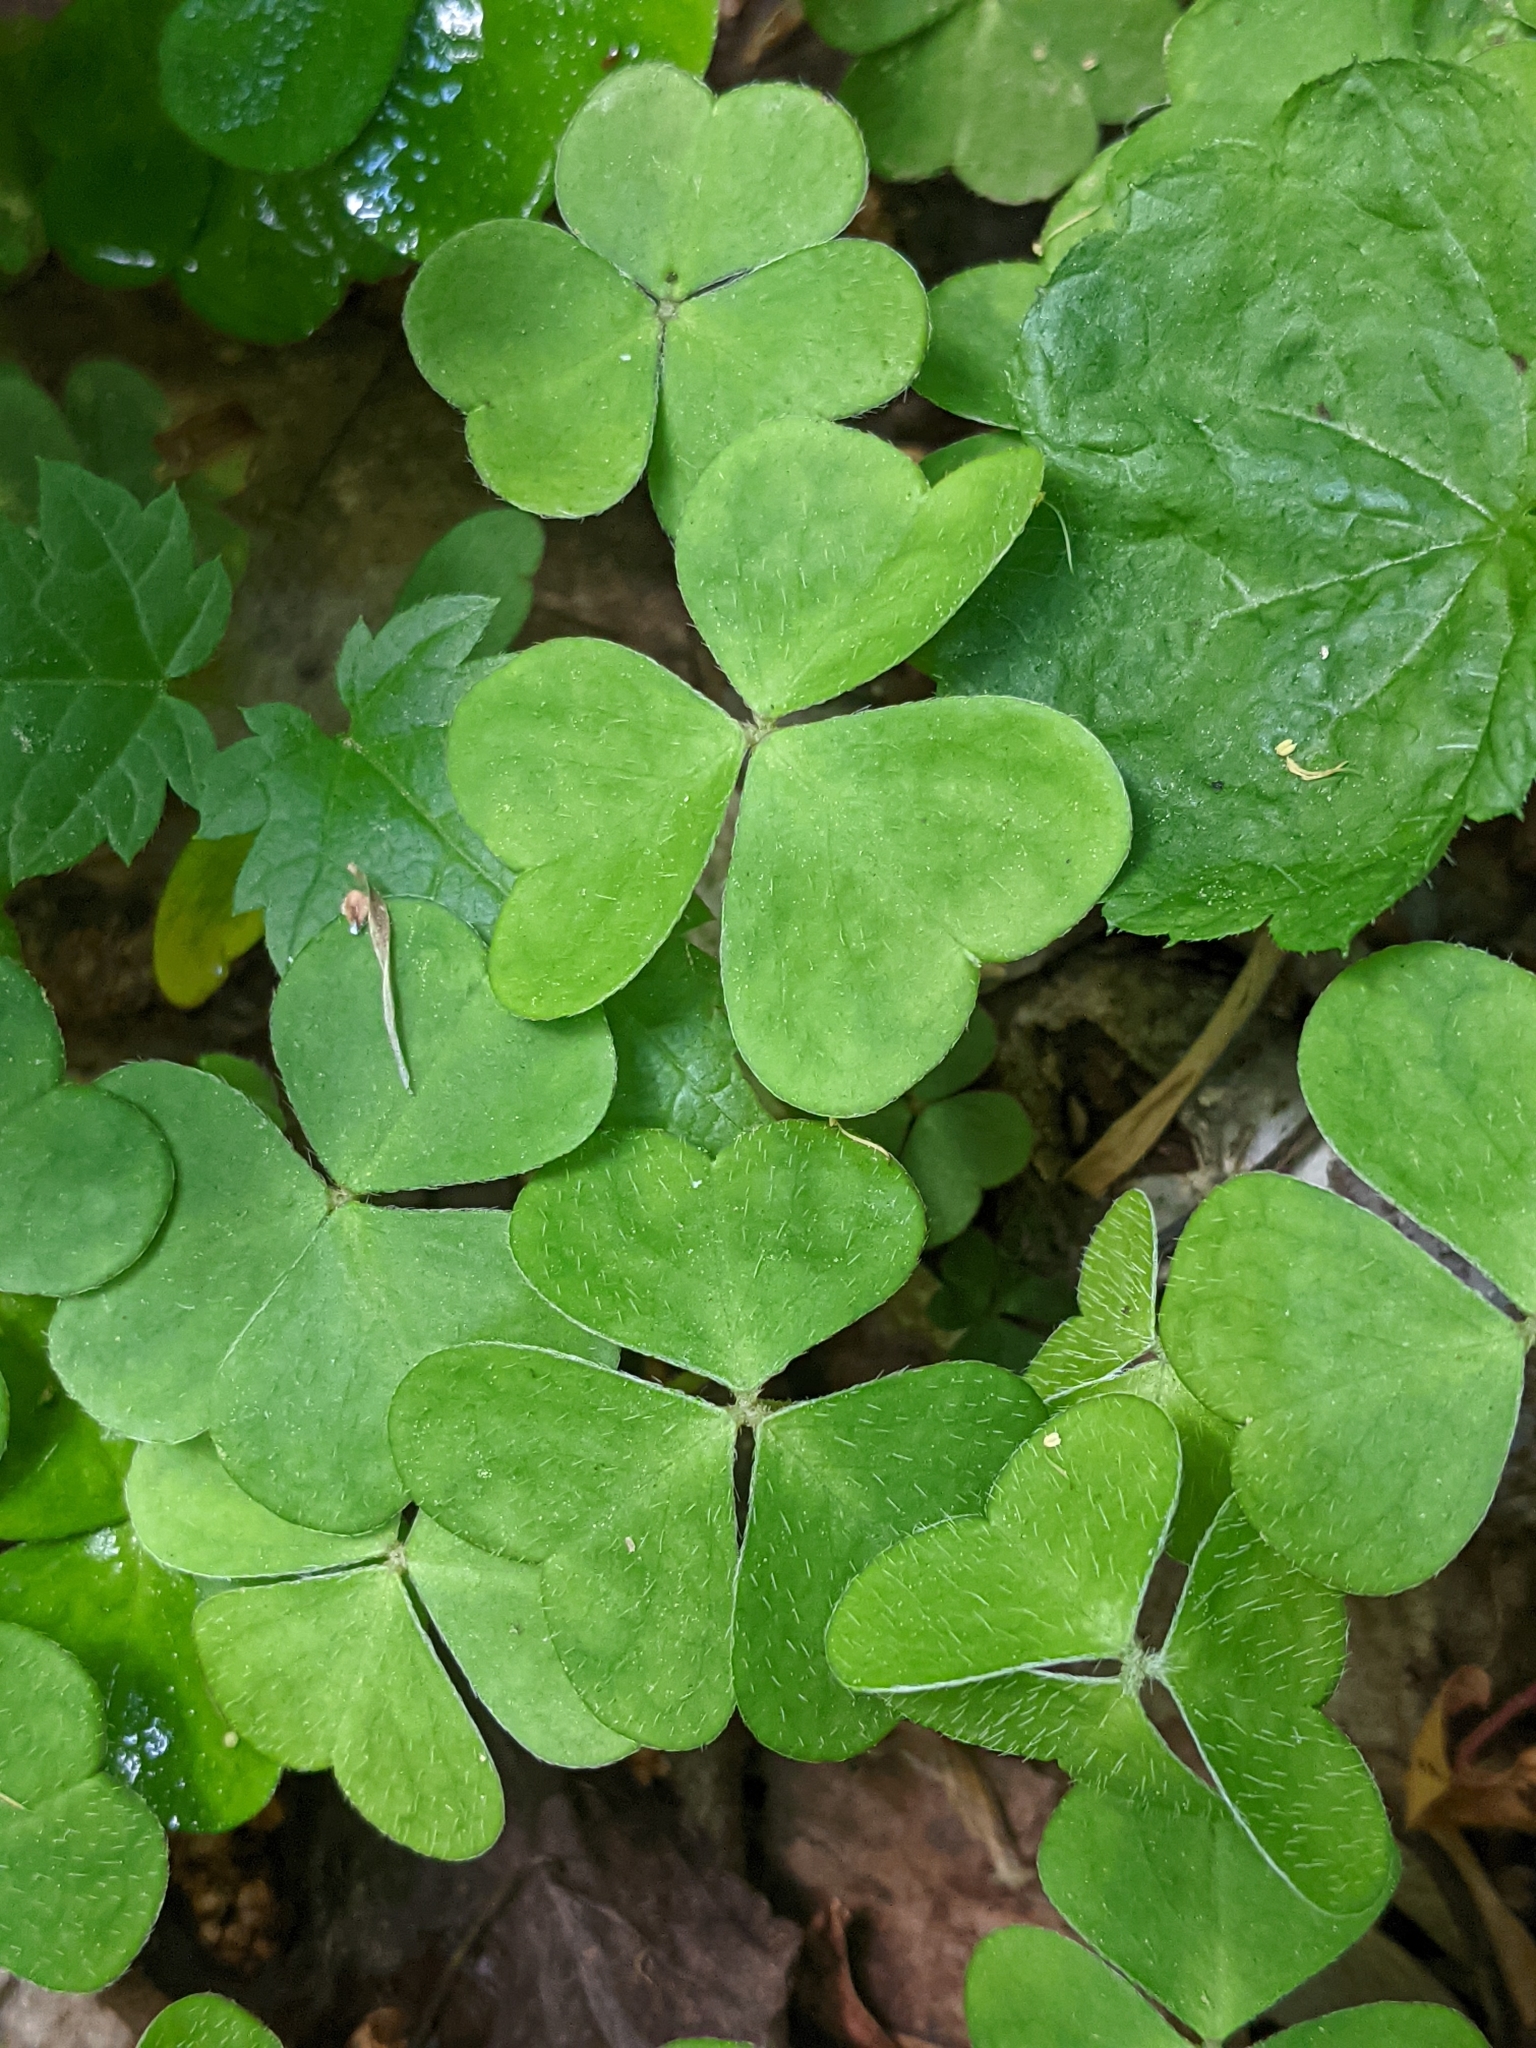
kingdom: Plantae
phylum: Tracheophyta
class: Magnoliopsida
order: Oxalidales
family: Oxalidaceae
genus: Oxalis
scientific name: Oxalis montana
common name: American wood-sorrel
